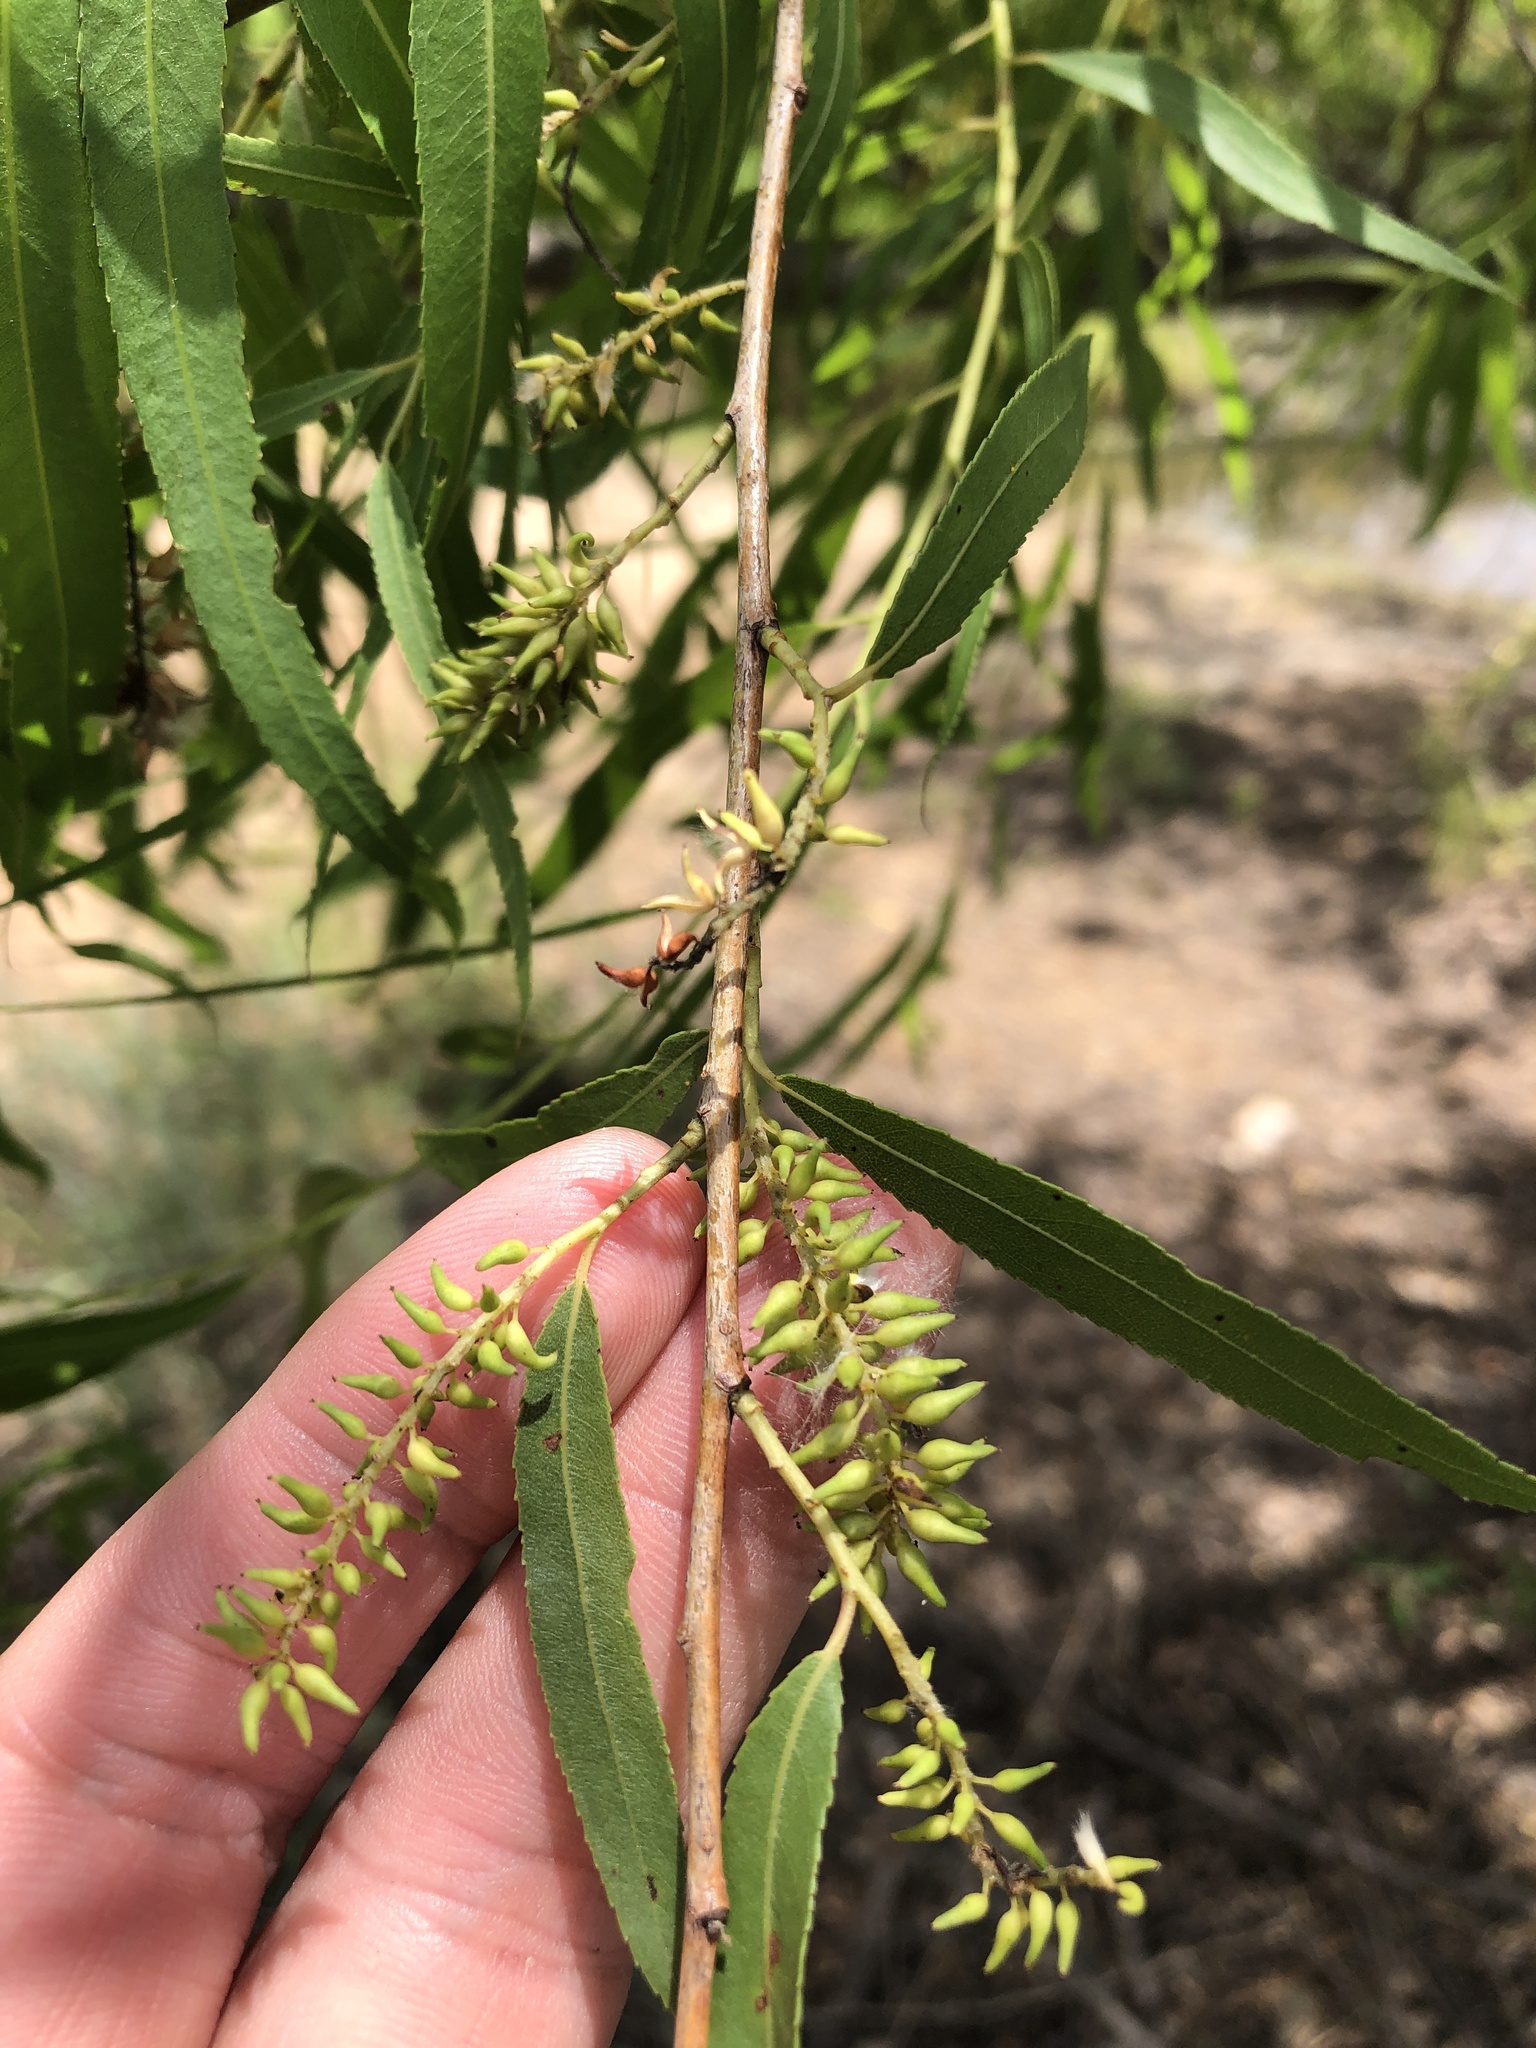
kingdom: Plantae
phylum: Tracheophyta
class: Magnoliopsida
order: Malpighiales
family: Salicaceae
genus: Salix
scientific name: Salix nigra
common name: Black willow
